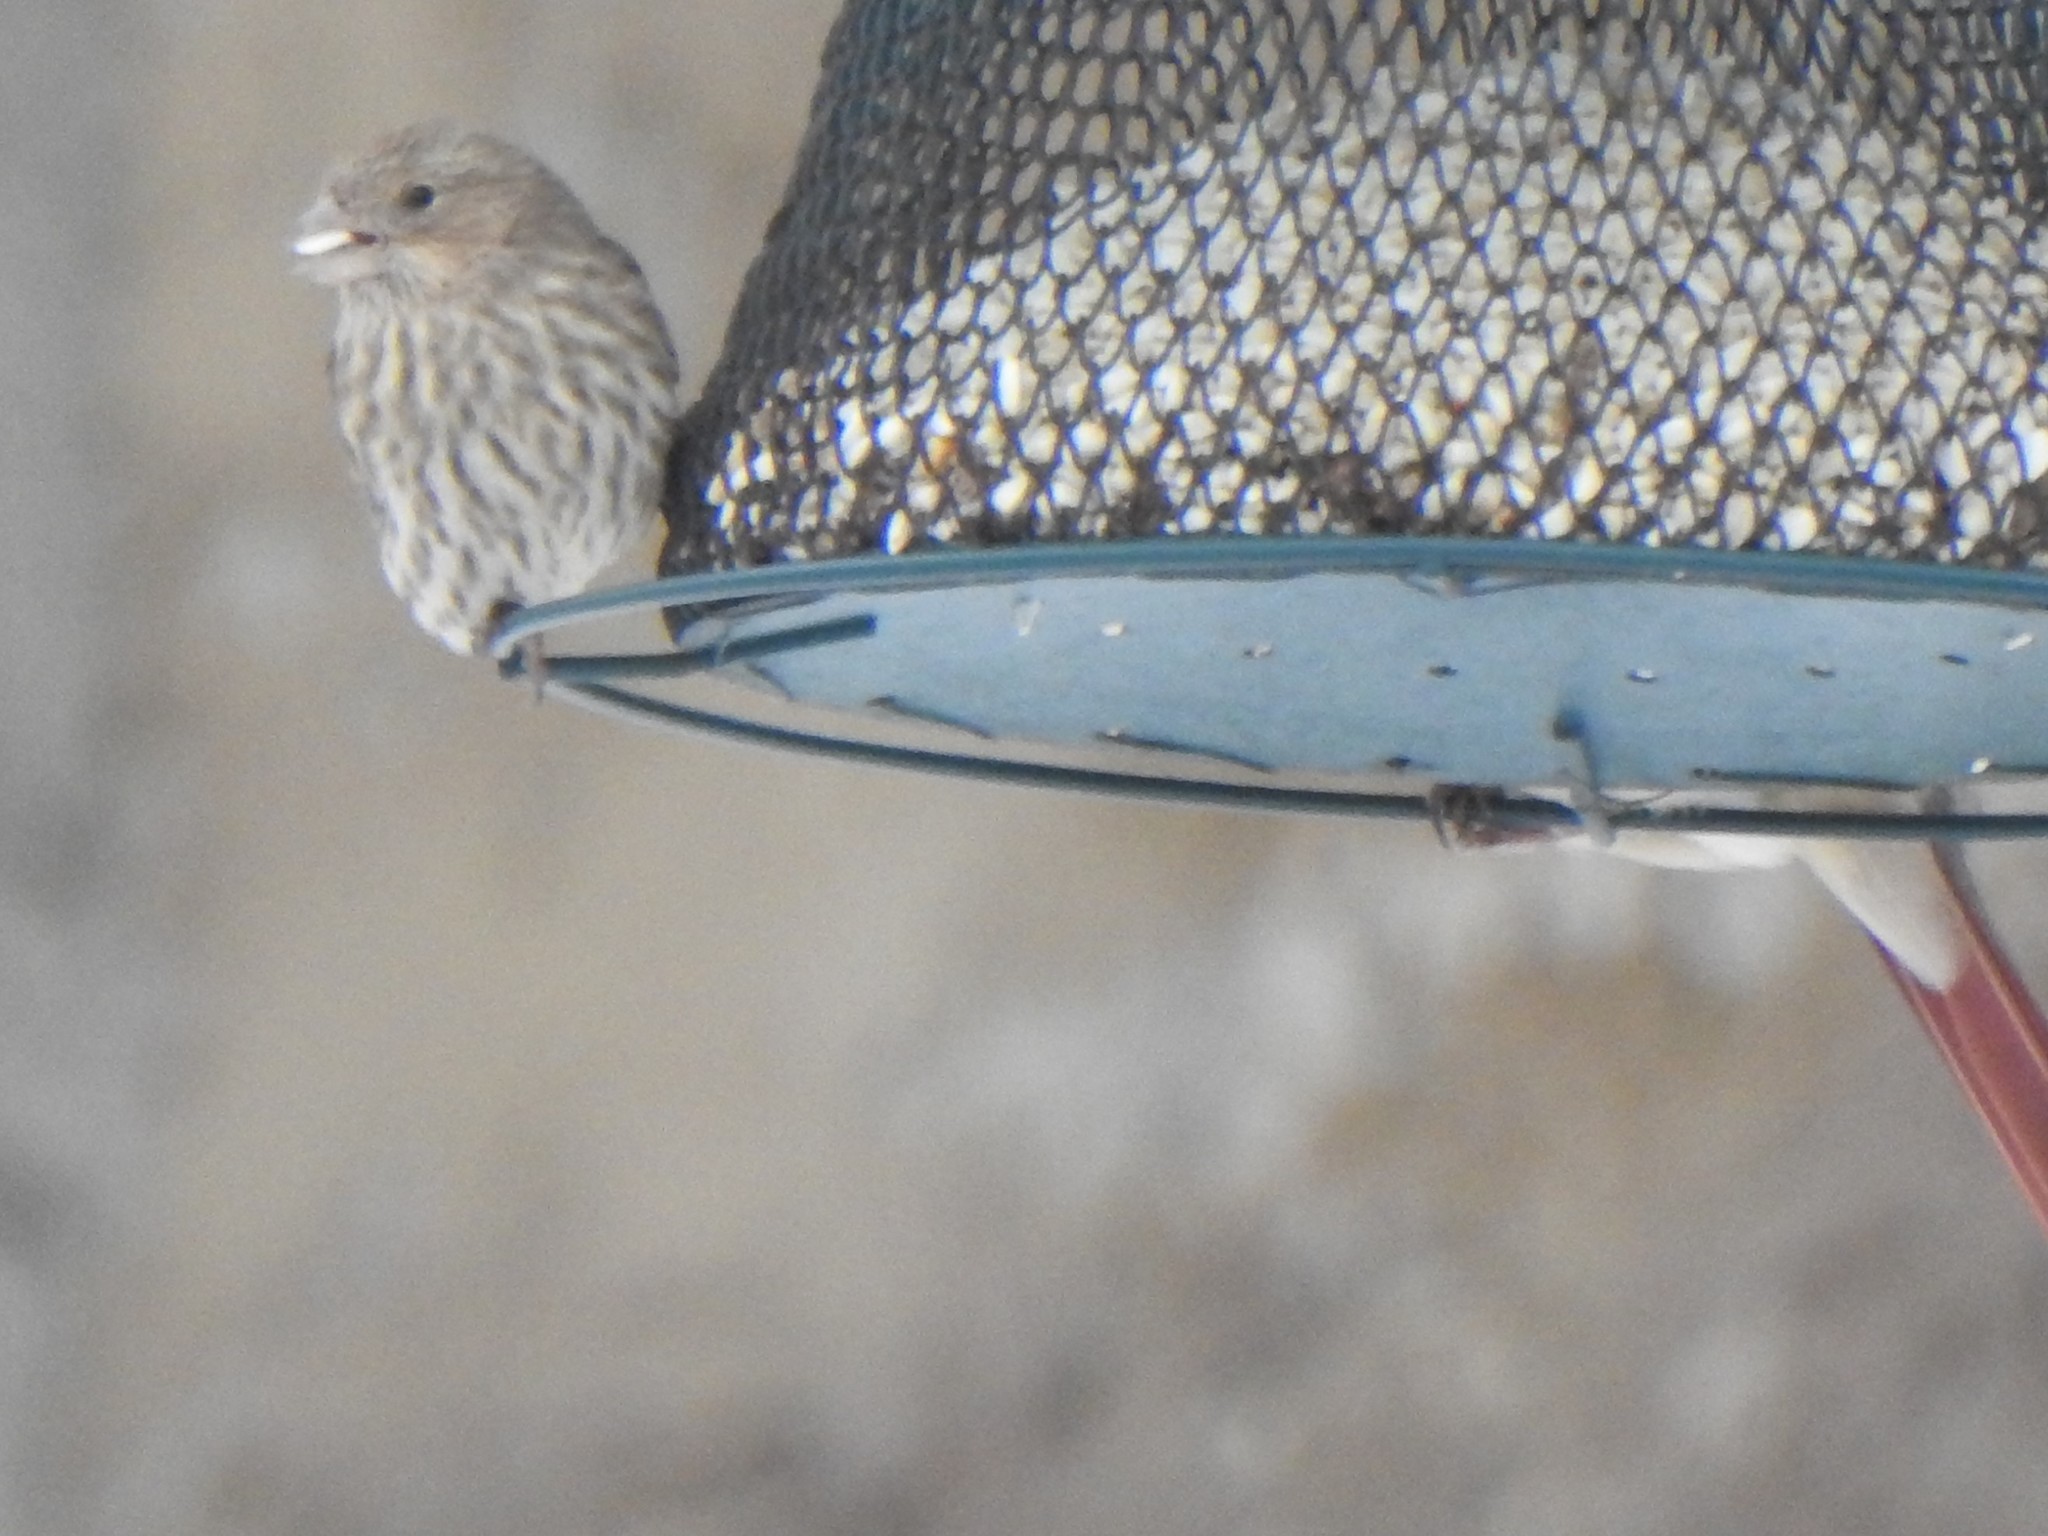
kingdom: Animalia
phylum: Chordata
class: Aves
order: Passeriformes
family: Fringillidae
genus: Haemorhous
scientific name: Haemorhous mexicanus
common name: House finch
